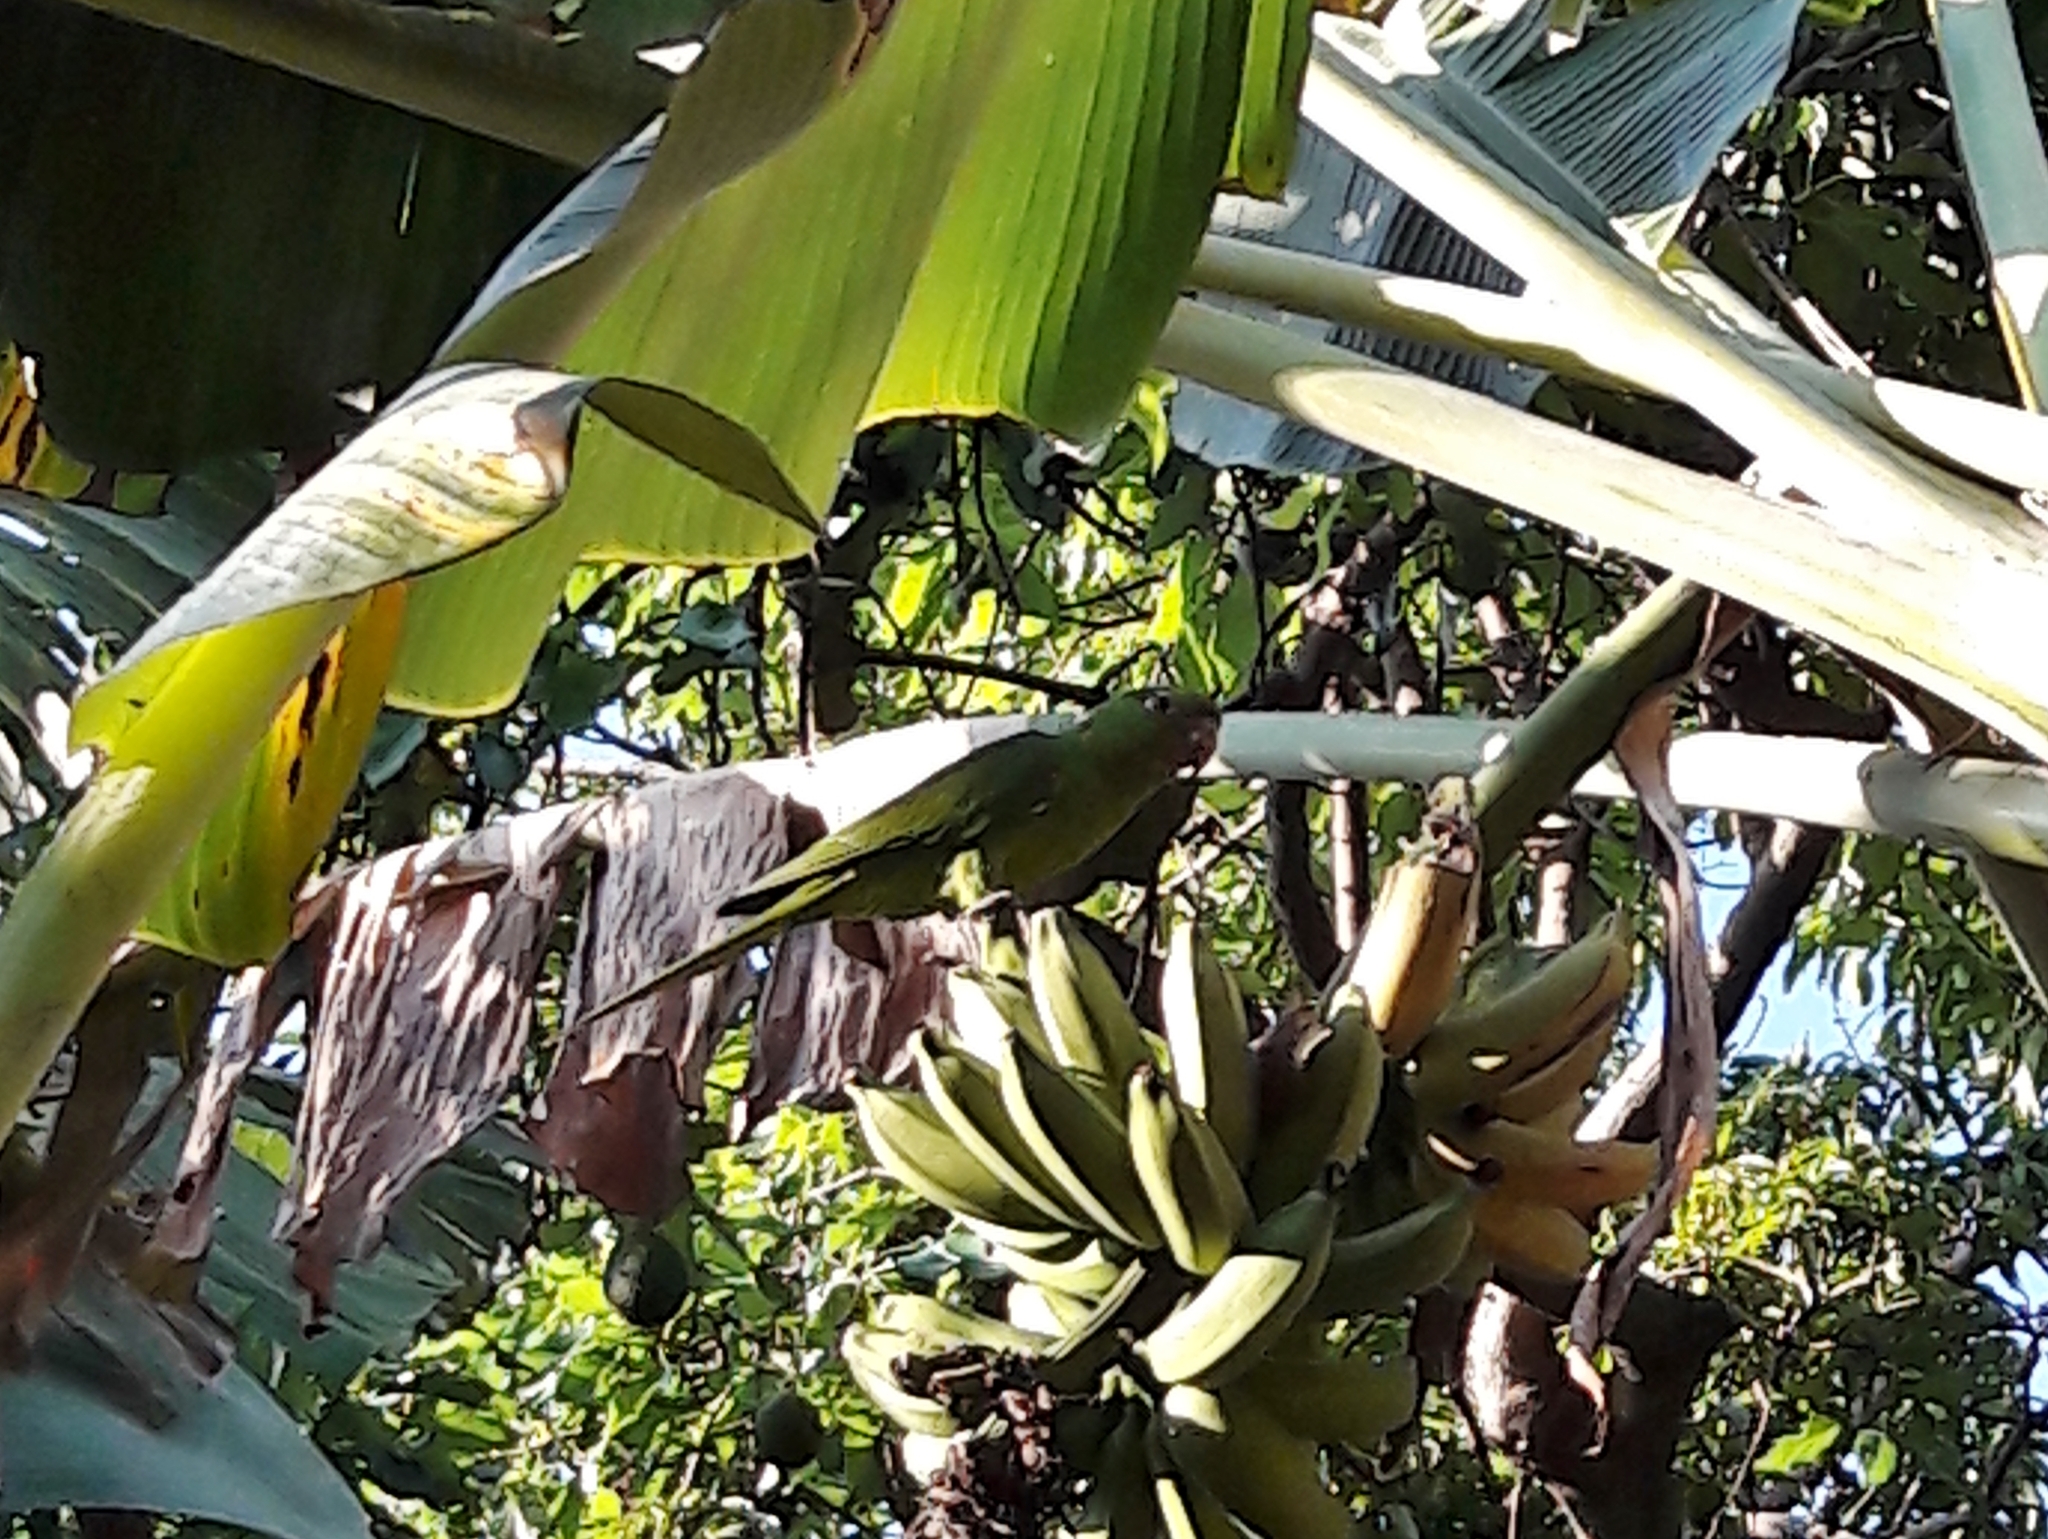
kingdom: Animalia
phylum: Chordata
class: Aves
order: Psittaciformes
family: Psittacidae
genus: Aratinga
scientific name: Aratinga leucophthalma
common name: White-eyed parakeet
